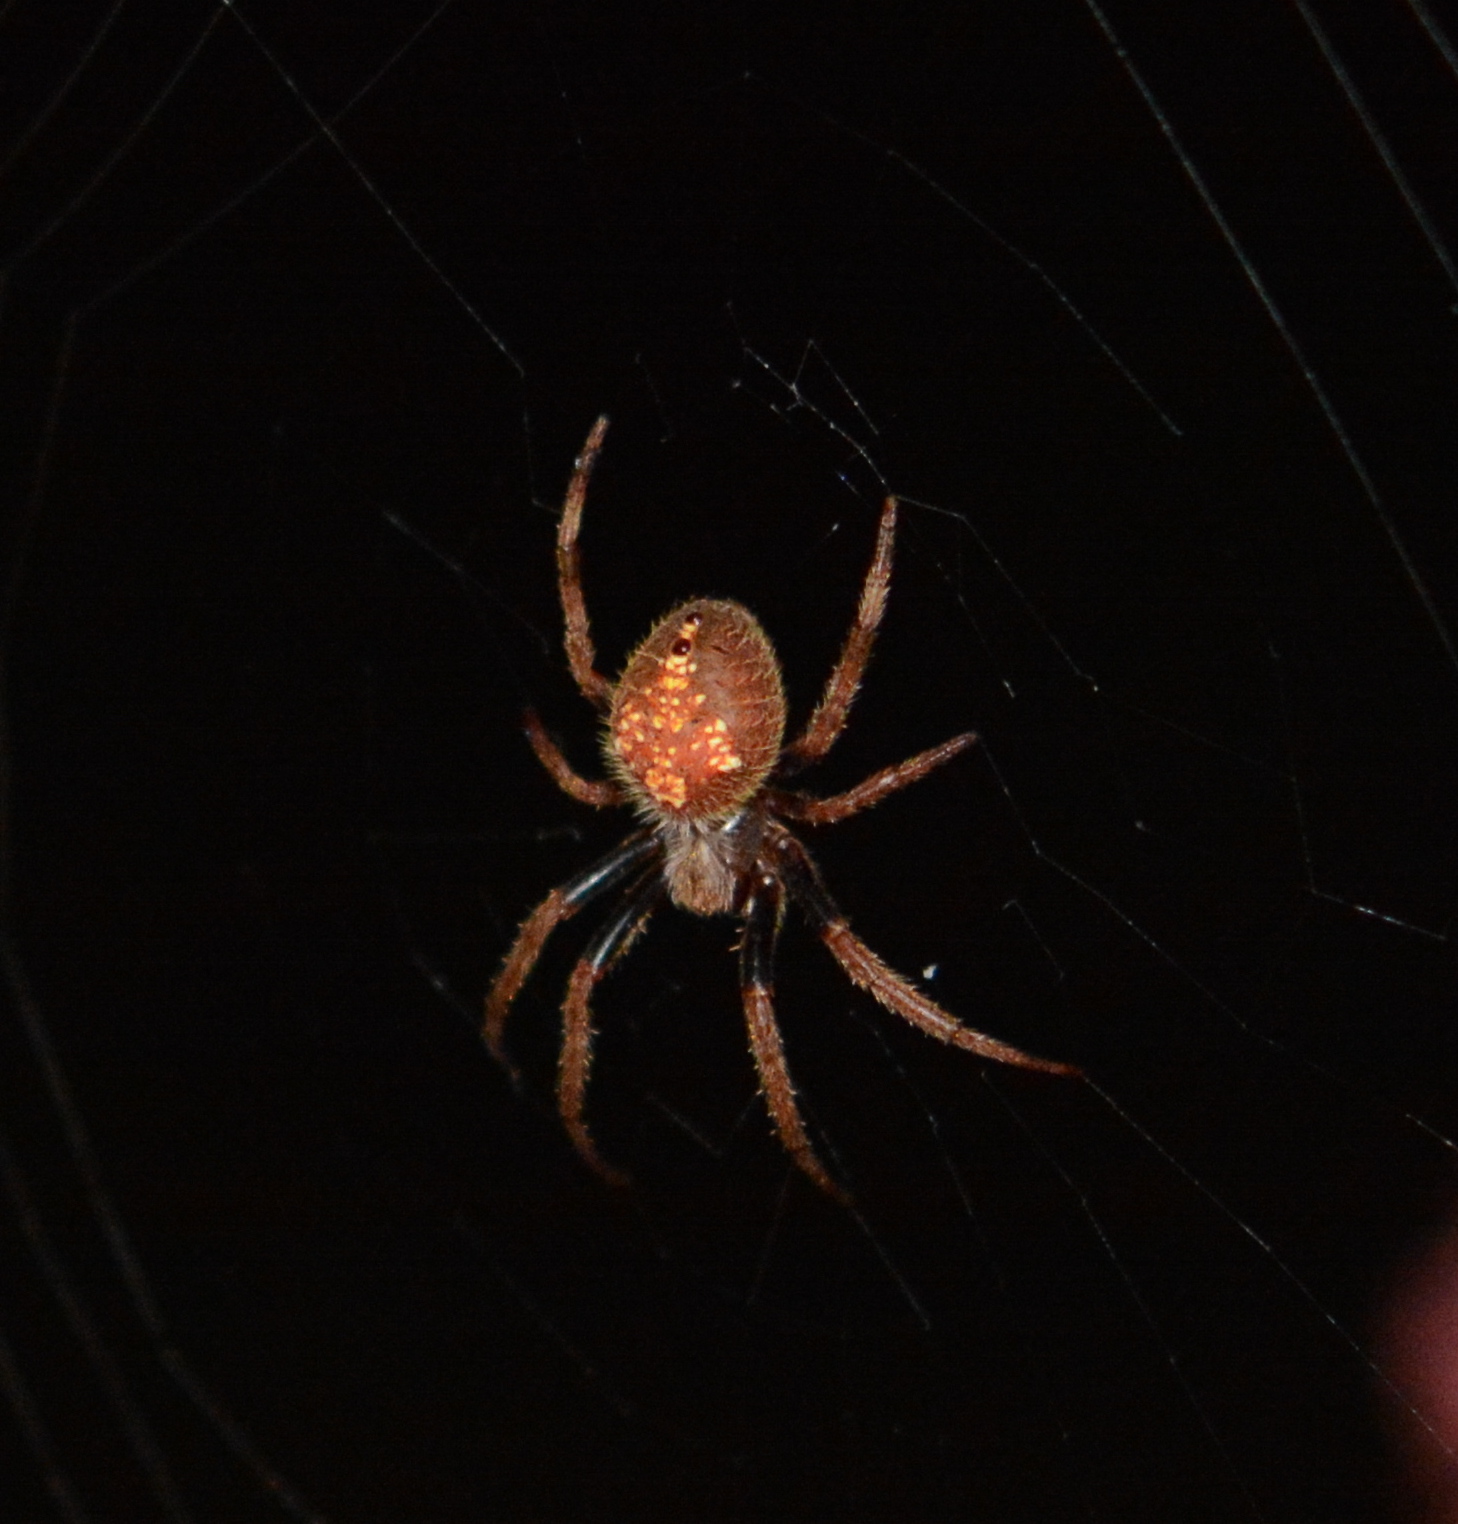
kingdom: Animalia
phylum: Arthropoda
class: Arachnida
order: Araneae
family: Araneidae
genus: Eriophora
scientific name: Eriophora ravilla
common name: Orb weavers
